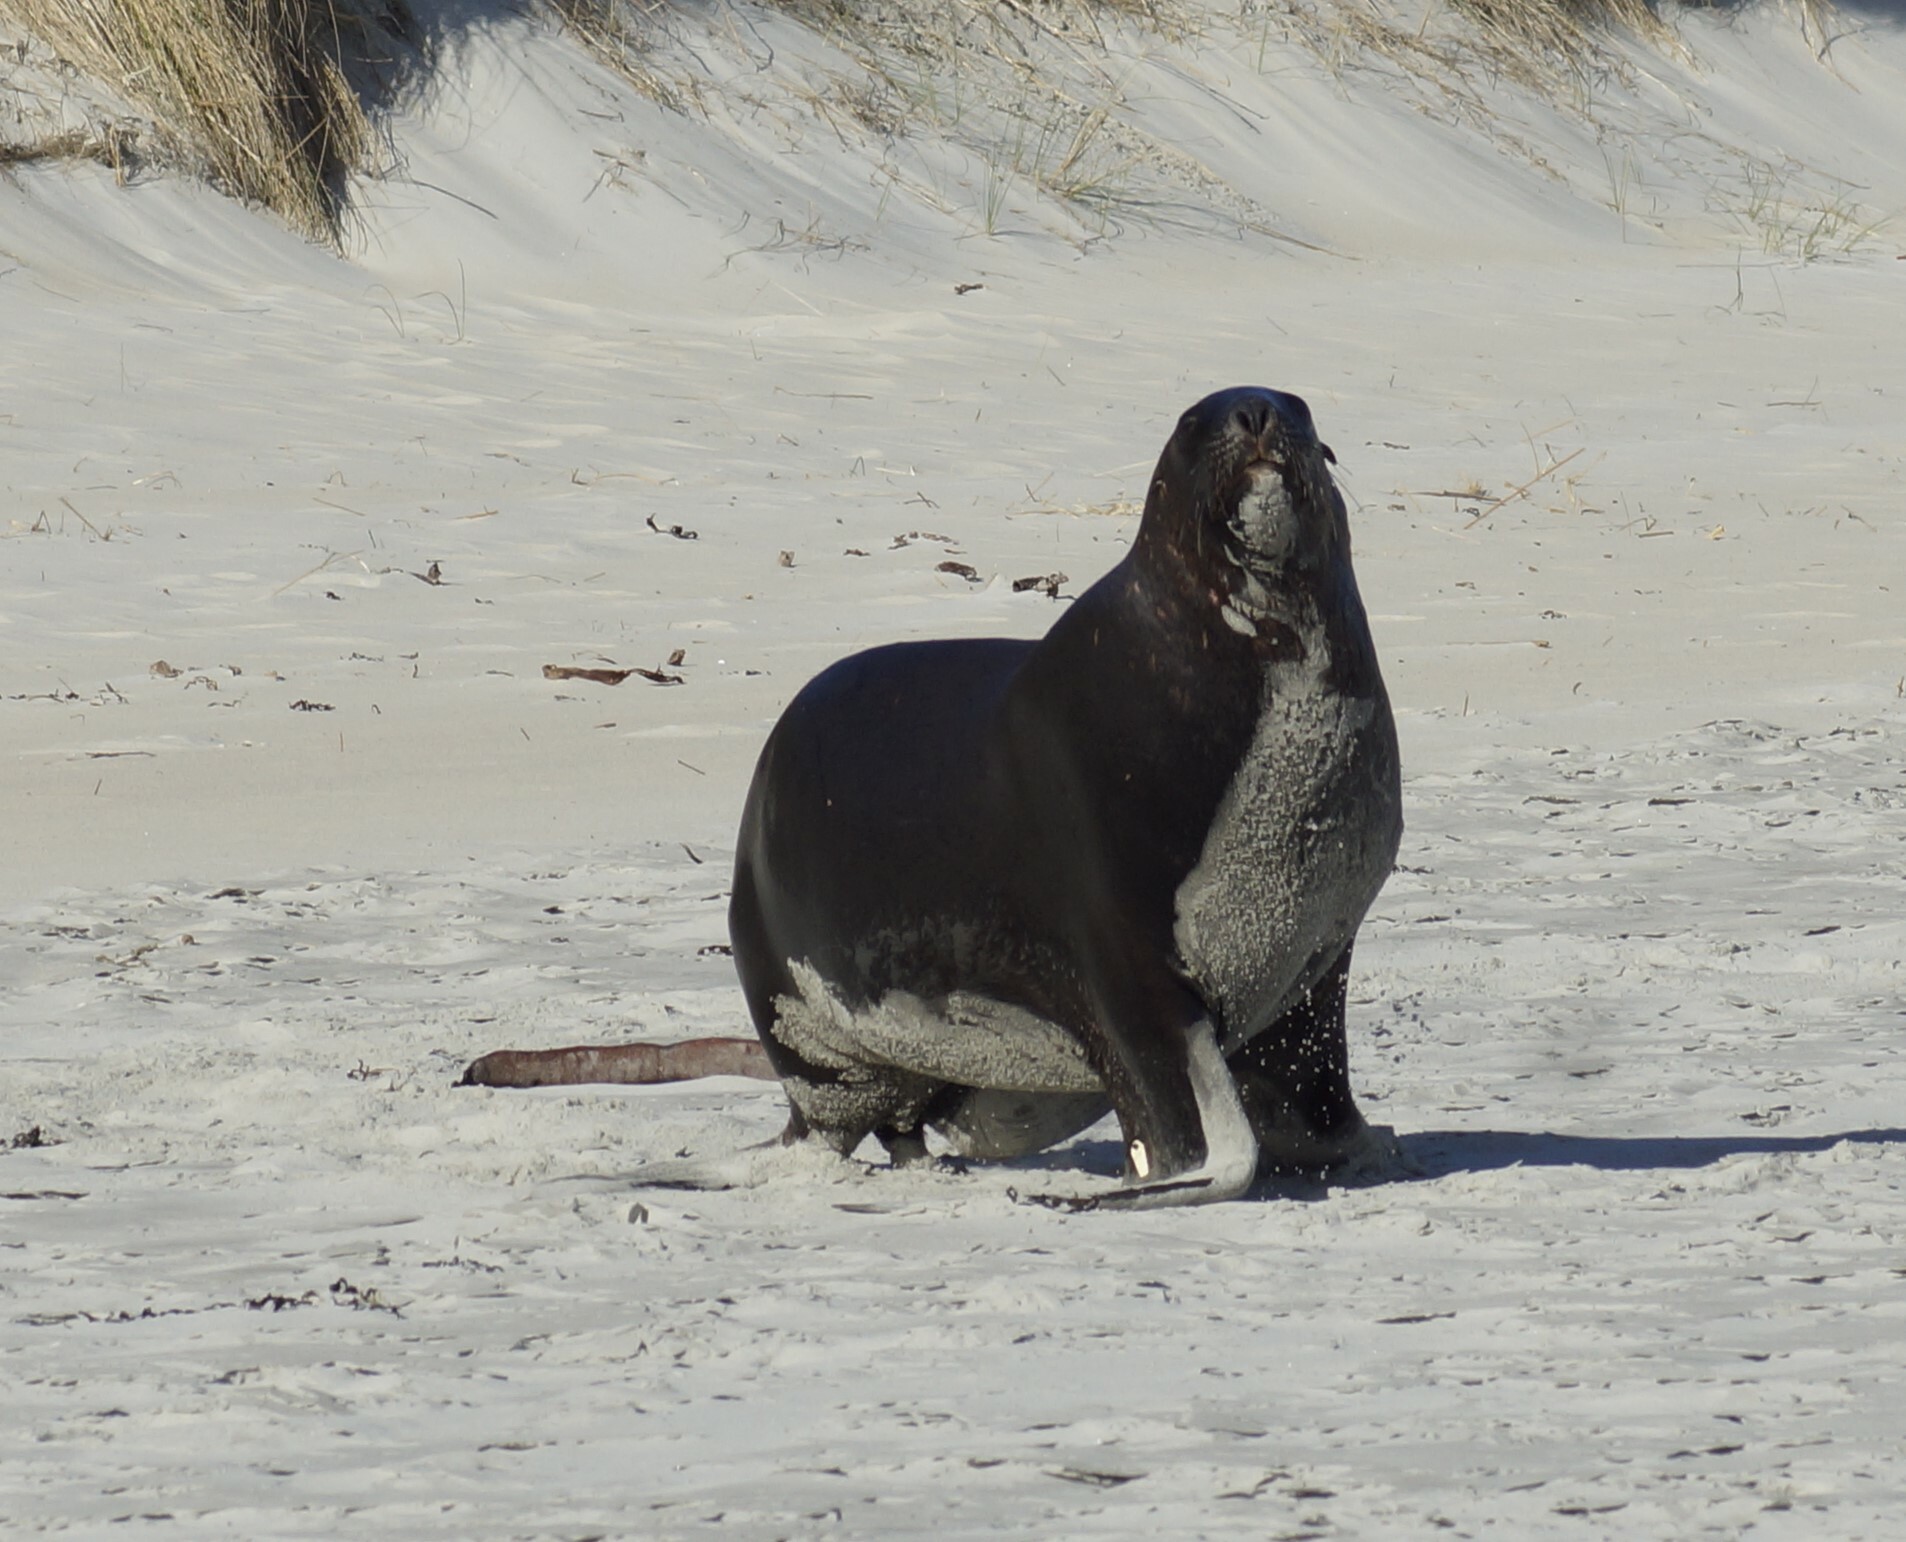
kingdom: Animalia
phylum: Chordata
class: Mammalia
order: Carnivora
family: Otariidae
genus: Phocarctos
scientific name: Phocarctos hookeri
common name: New zealand sea lion
